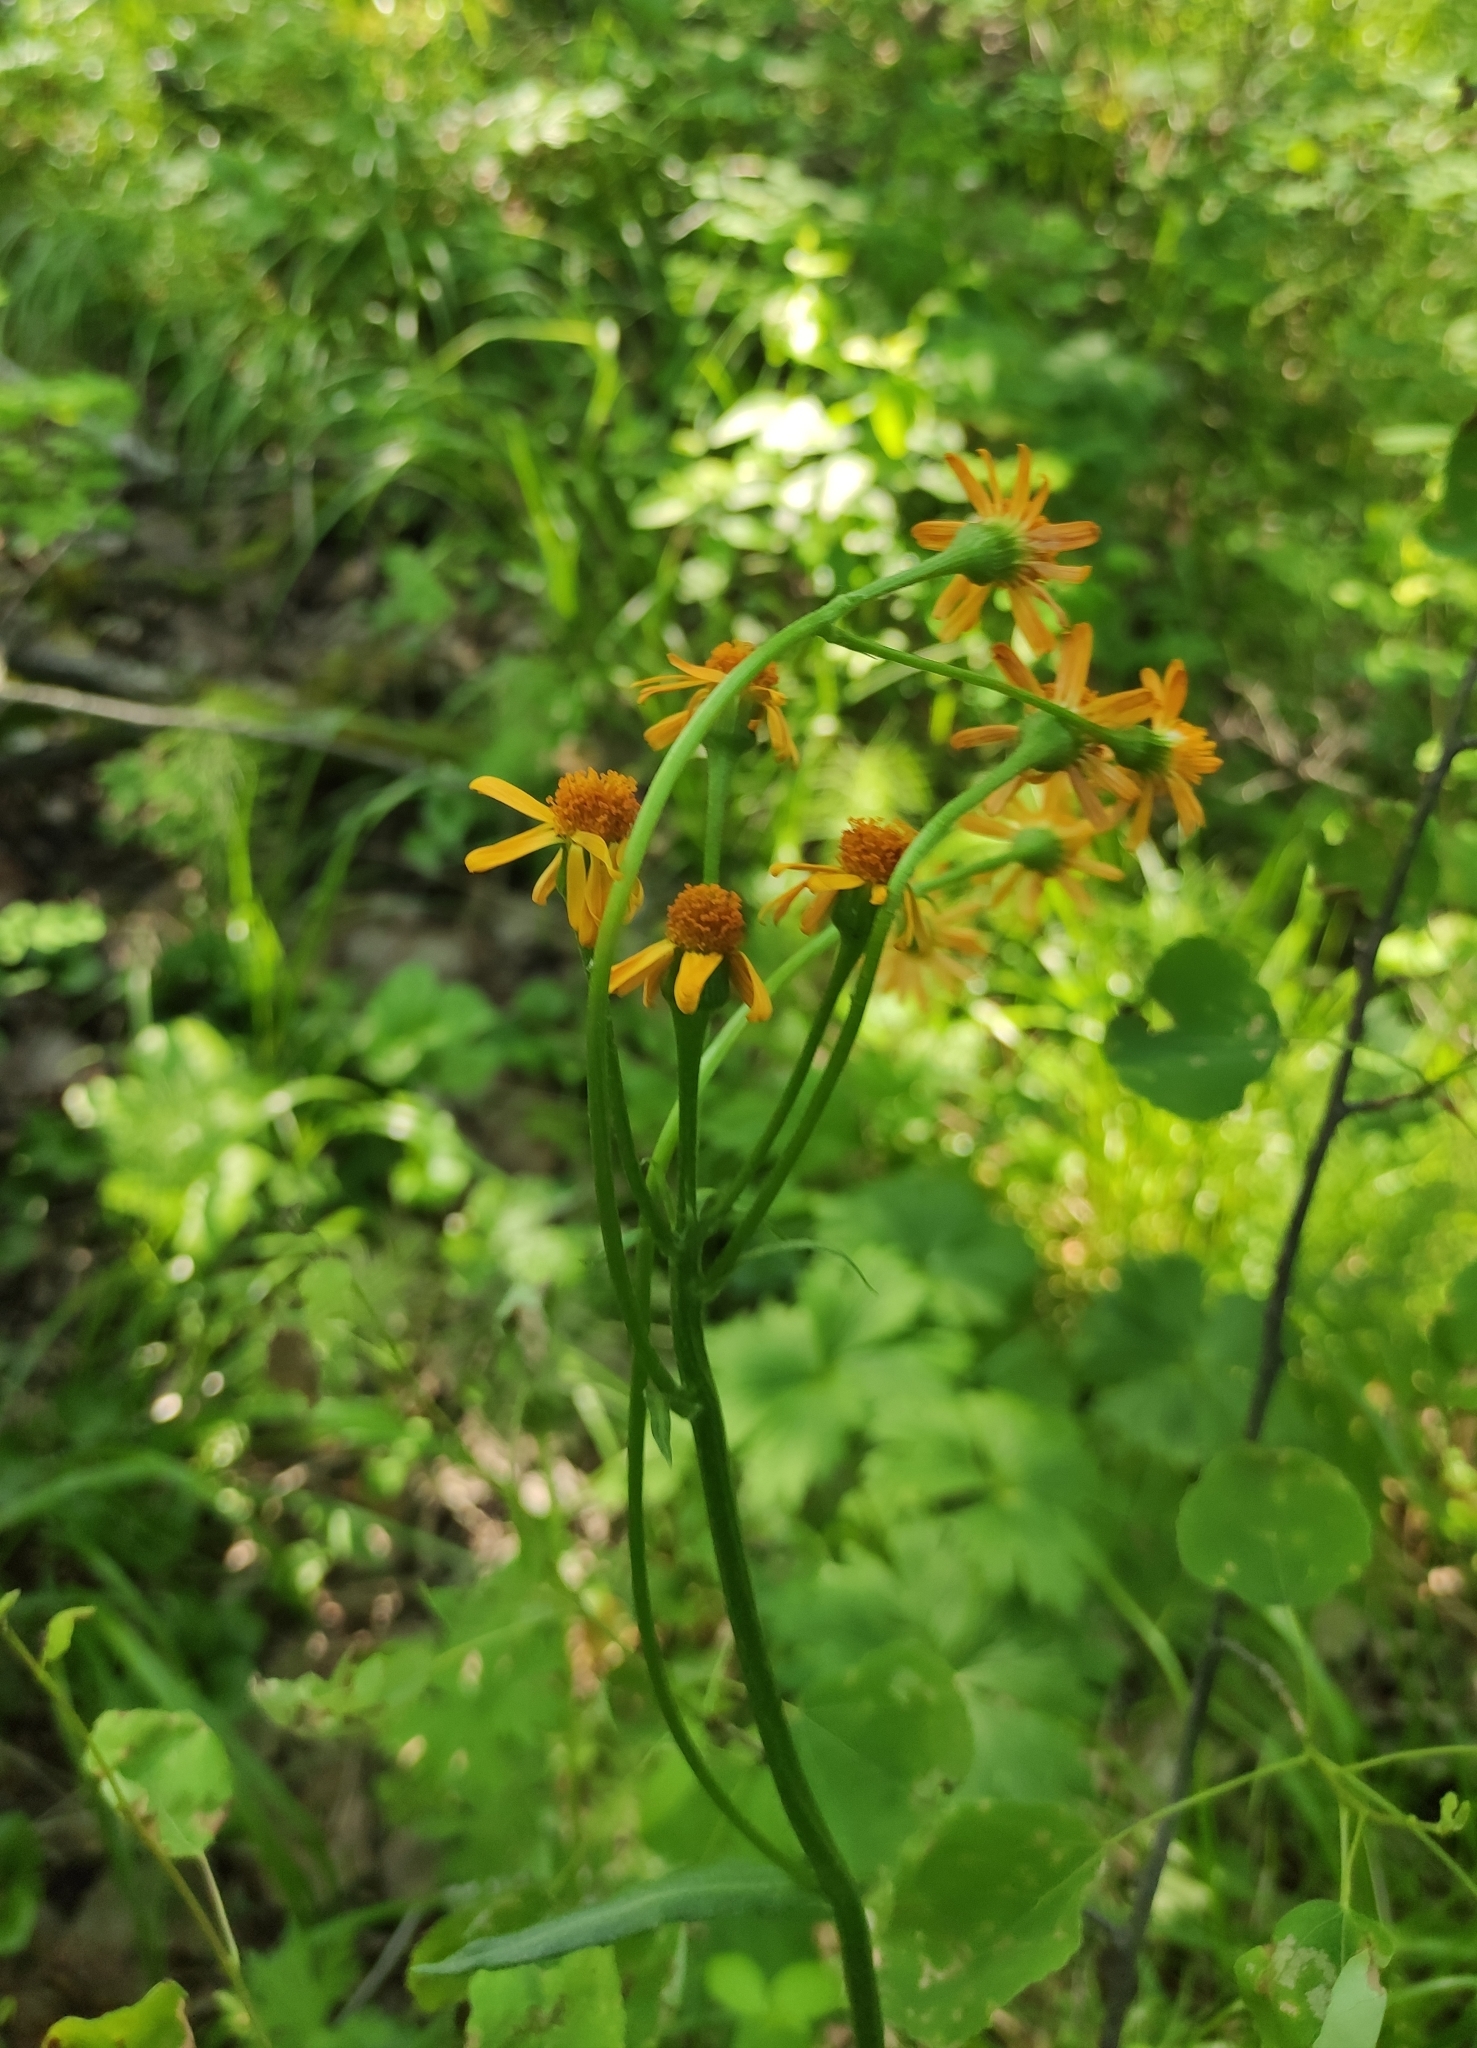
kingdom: Plantae
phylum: Tracheophyta
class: Magnoliopsida
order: Asterales
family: Asteraceae
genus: Tephroseris
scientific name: Tephroseris porphyrantha
